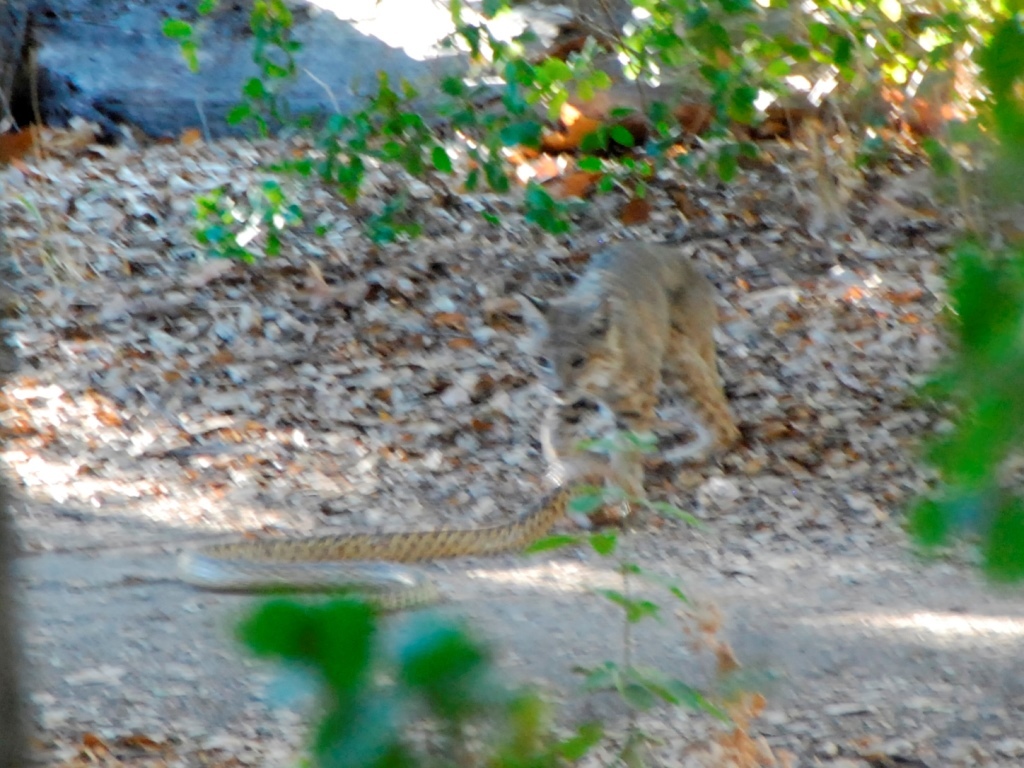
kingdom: Animalia
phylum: Chordata
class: Squamata
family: Colubridae
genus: Pituophis
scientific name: Pituophis catenifer
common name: Gopher snake
